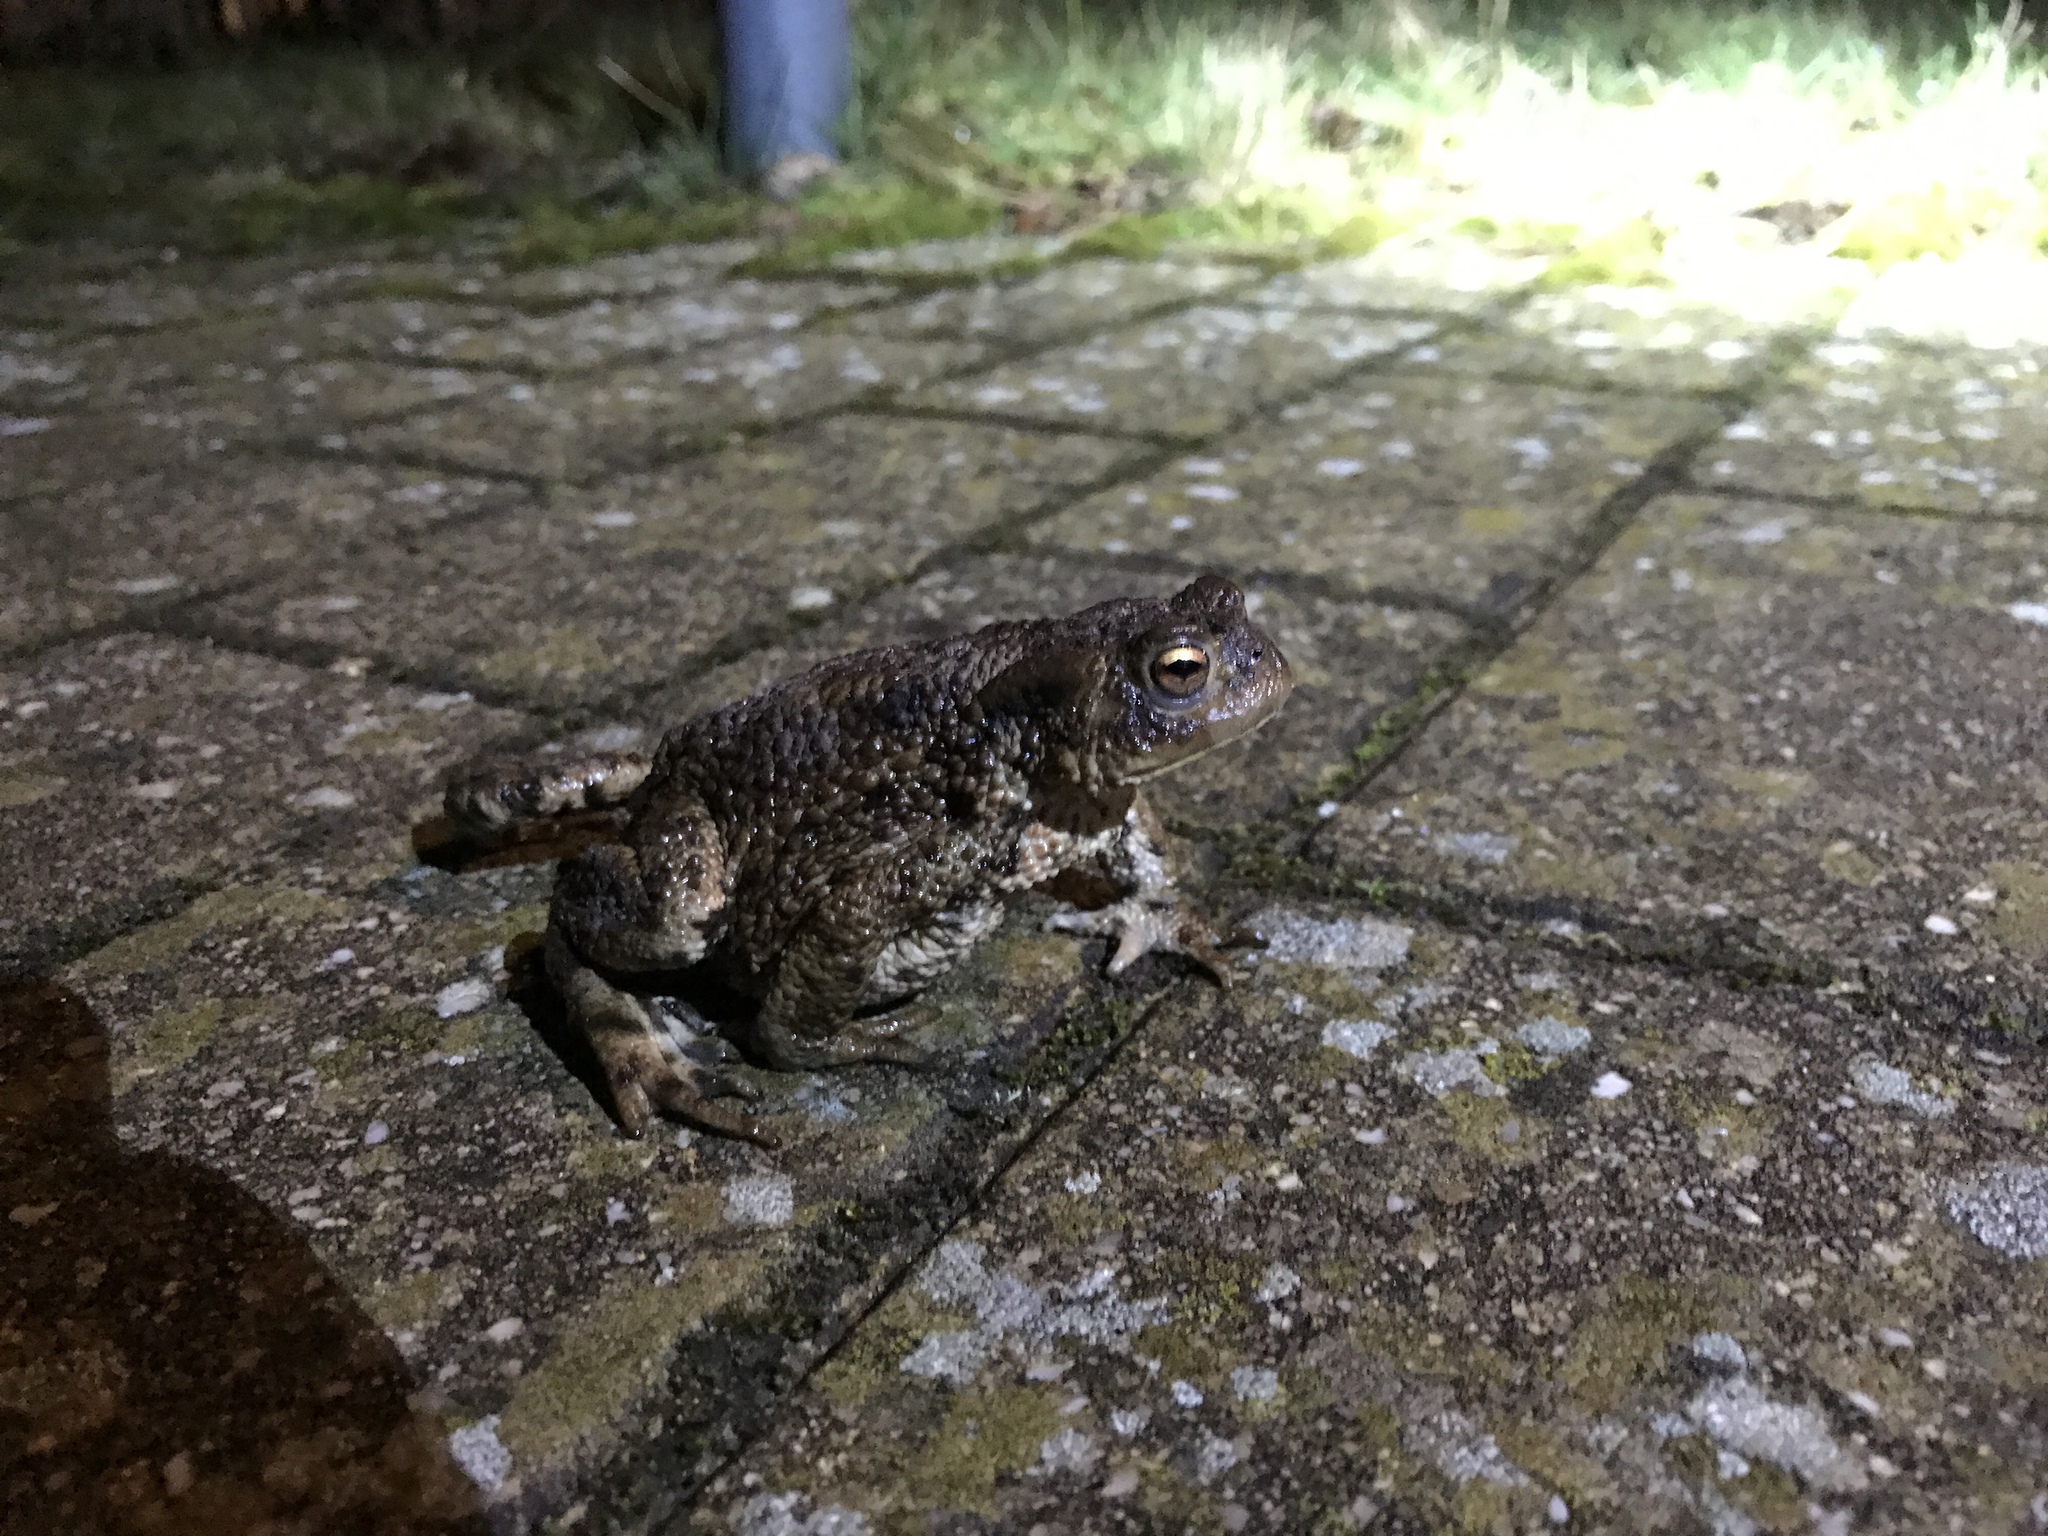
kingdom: Animalia
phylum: Chordata
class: Amphibia
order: Anura
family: Bufonidae
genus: Bufo
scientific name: Bufo bufo
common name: Common toad
